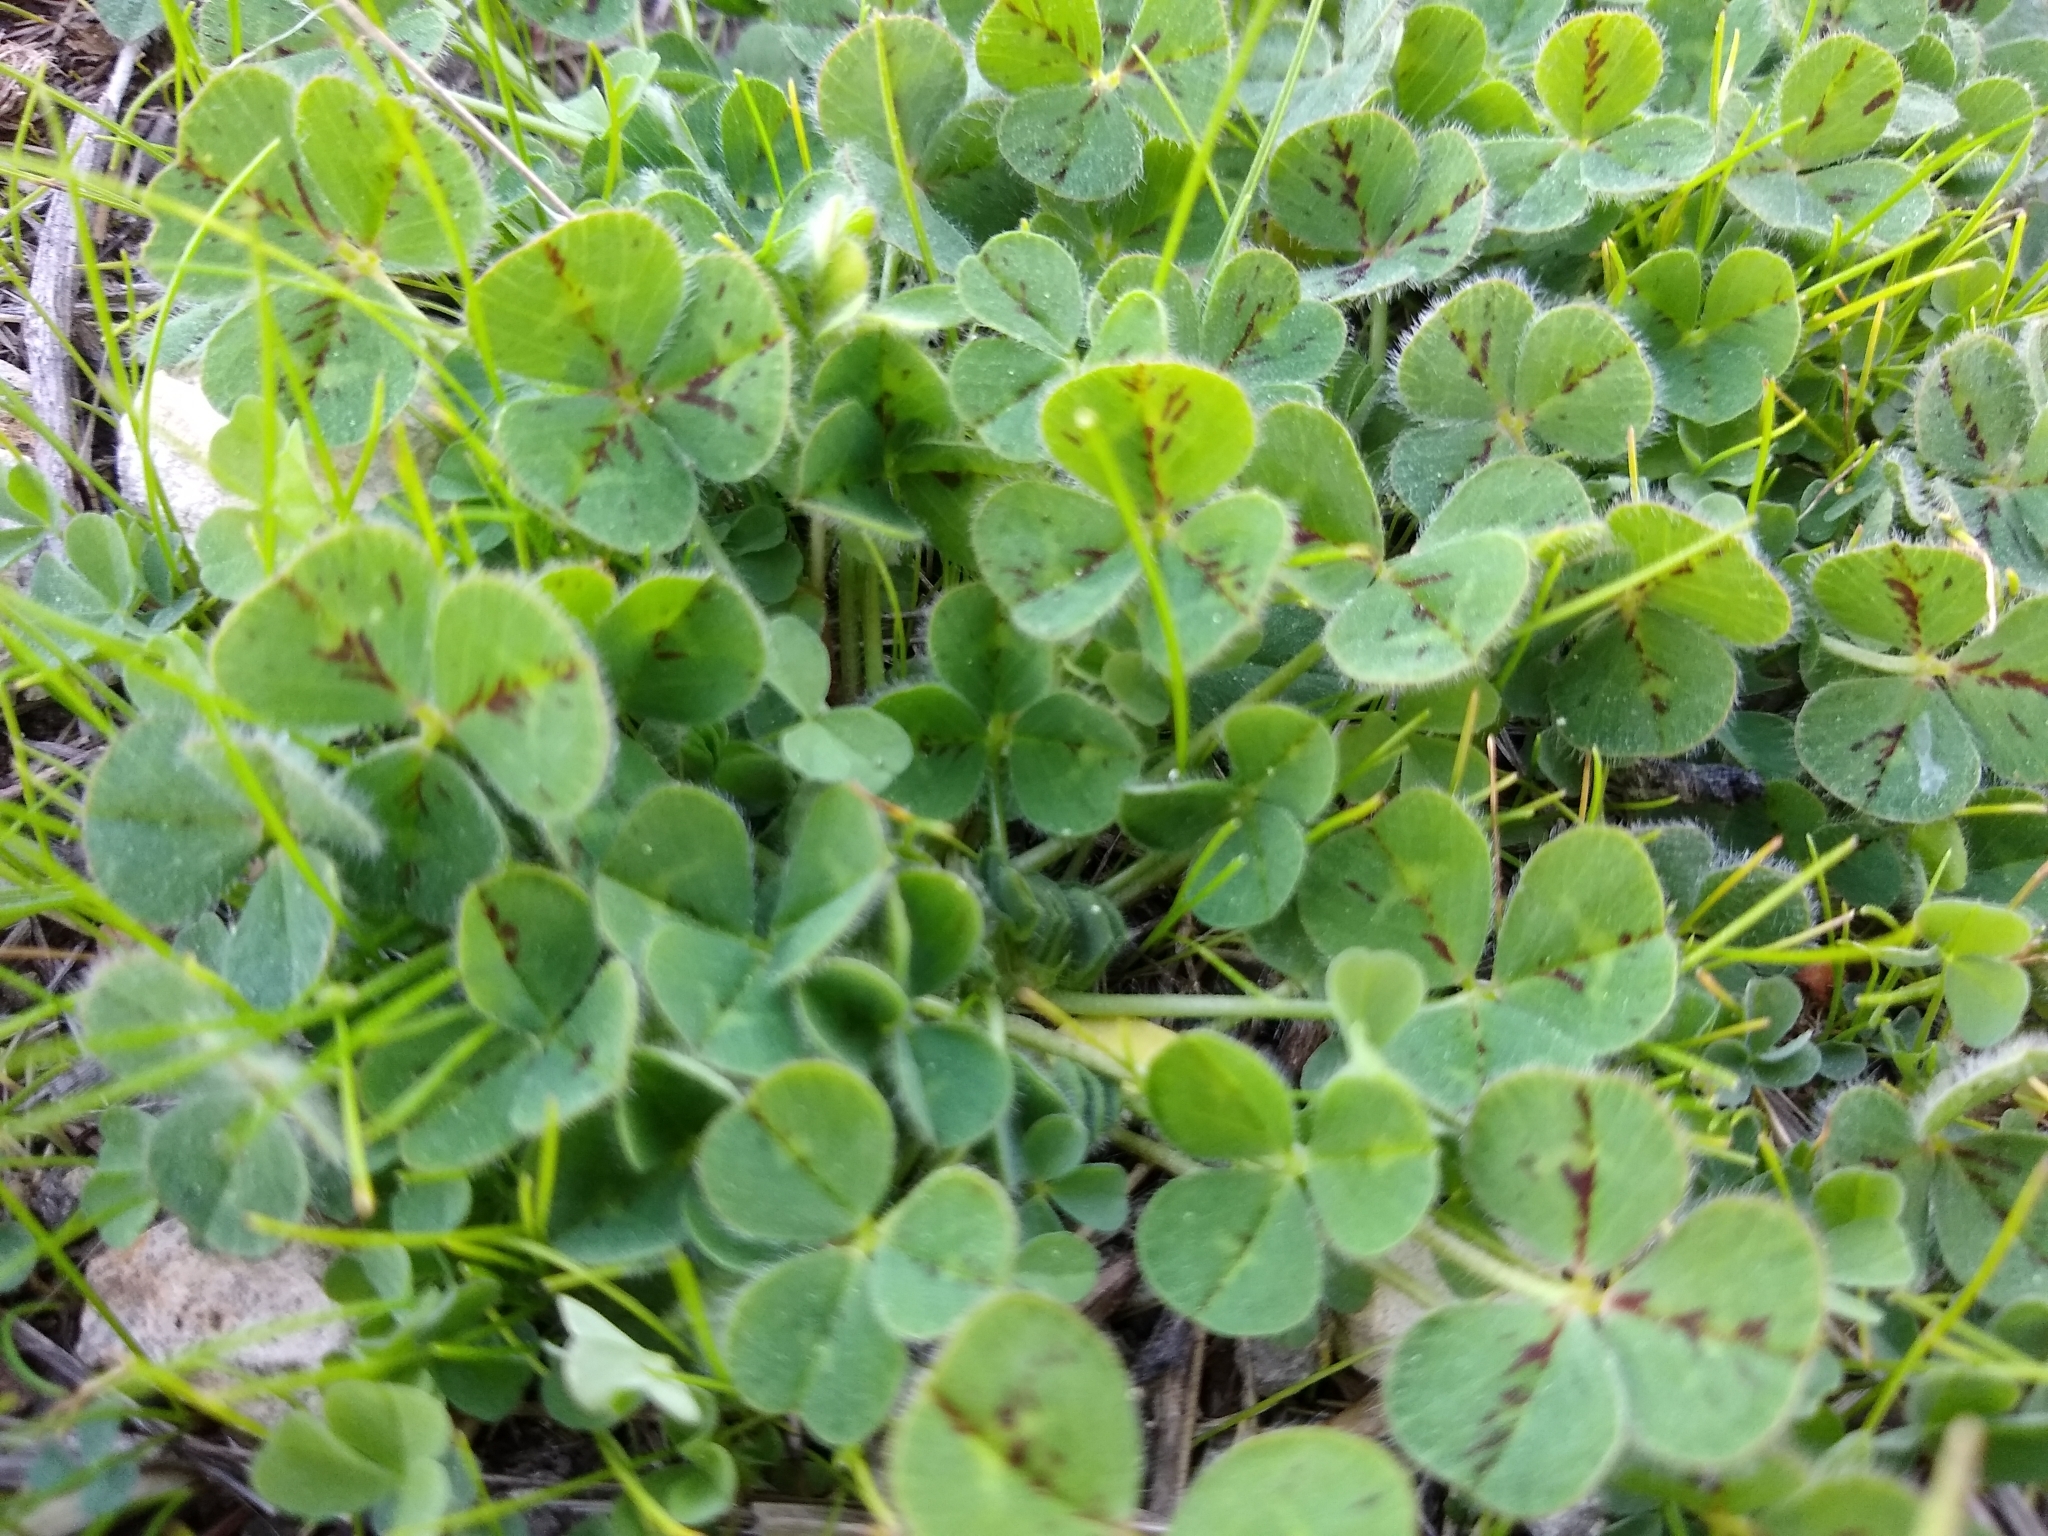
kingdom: Plantae
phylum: Tracheophyta
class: Magnoliopsida
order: Fabales
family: Fabaceae
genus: Trifolium
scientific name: Trifolium subterraneum
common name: Subterranean clover
